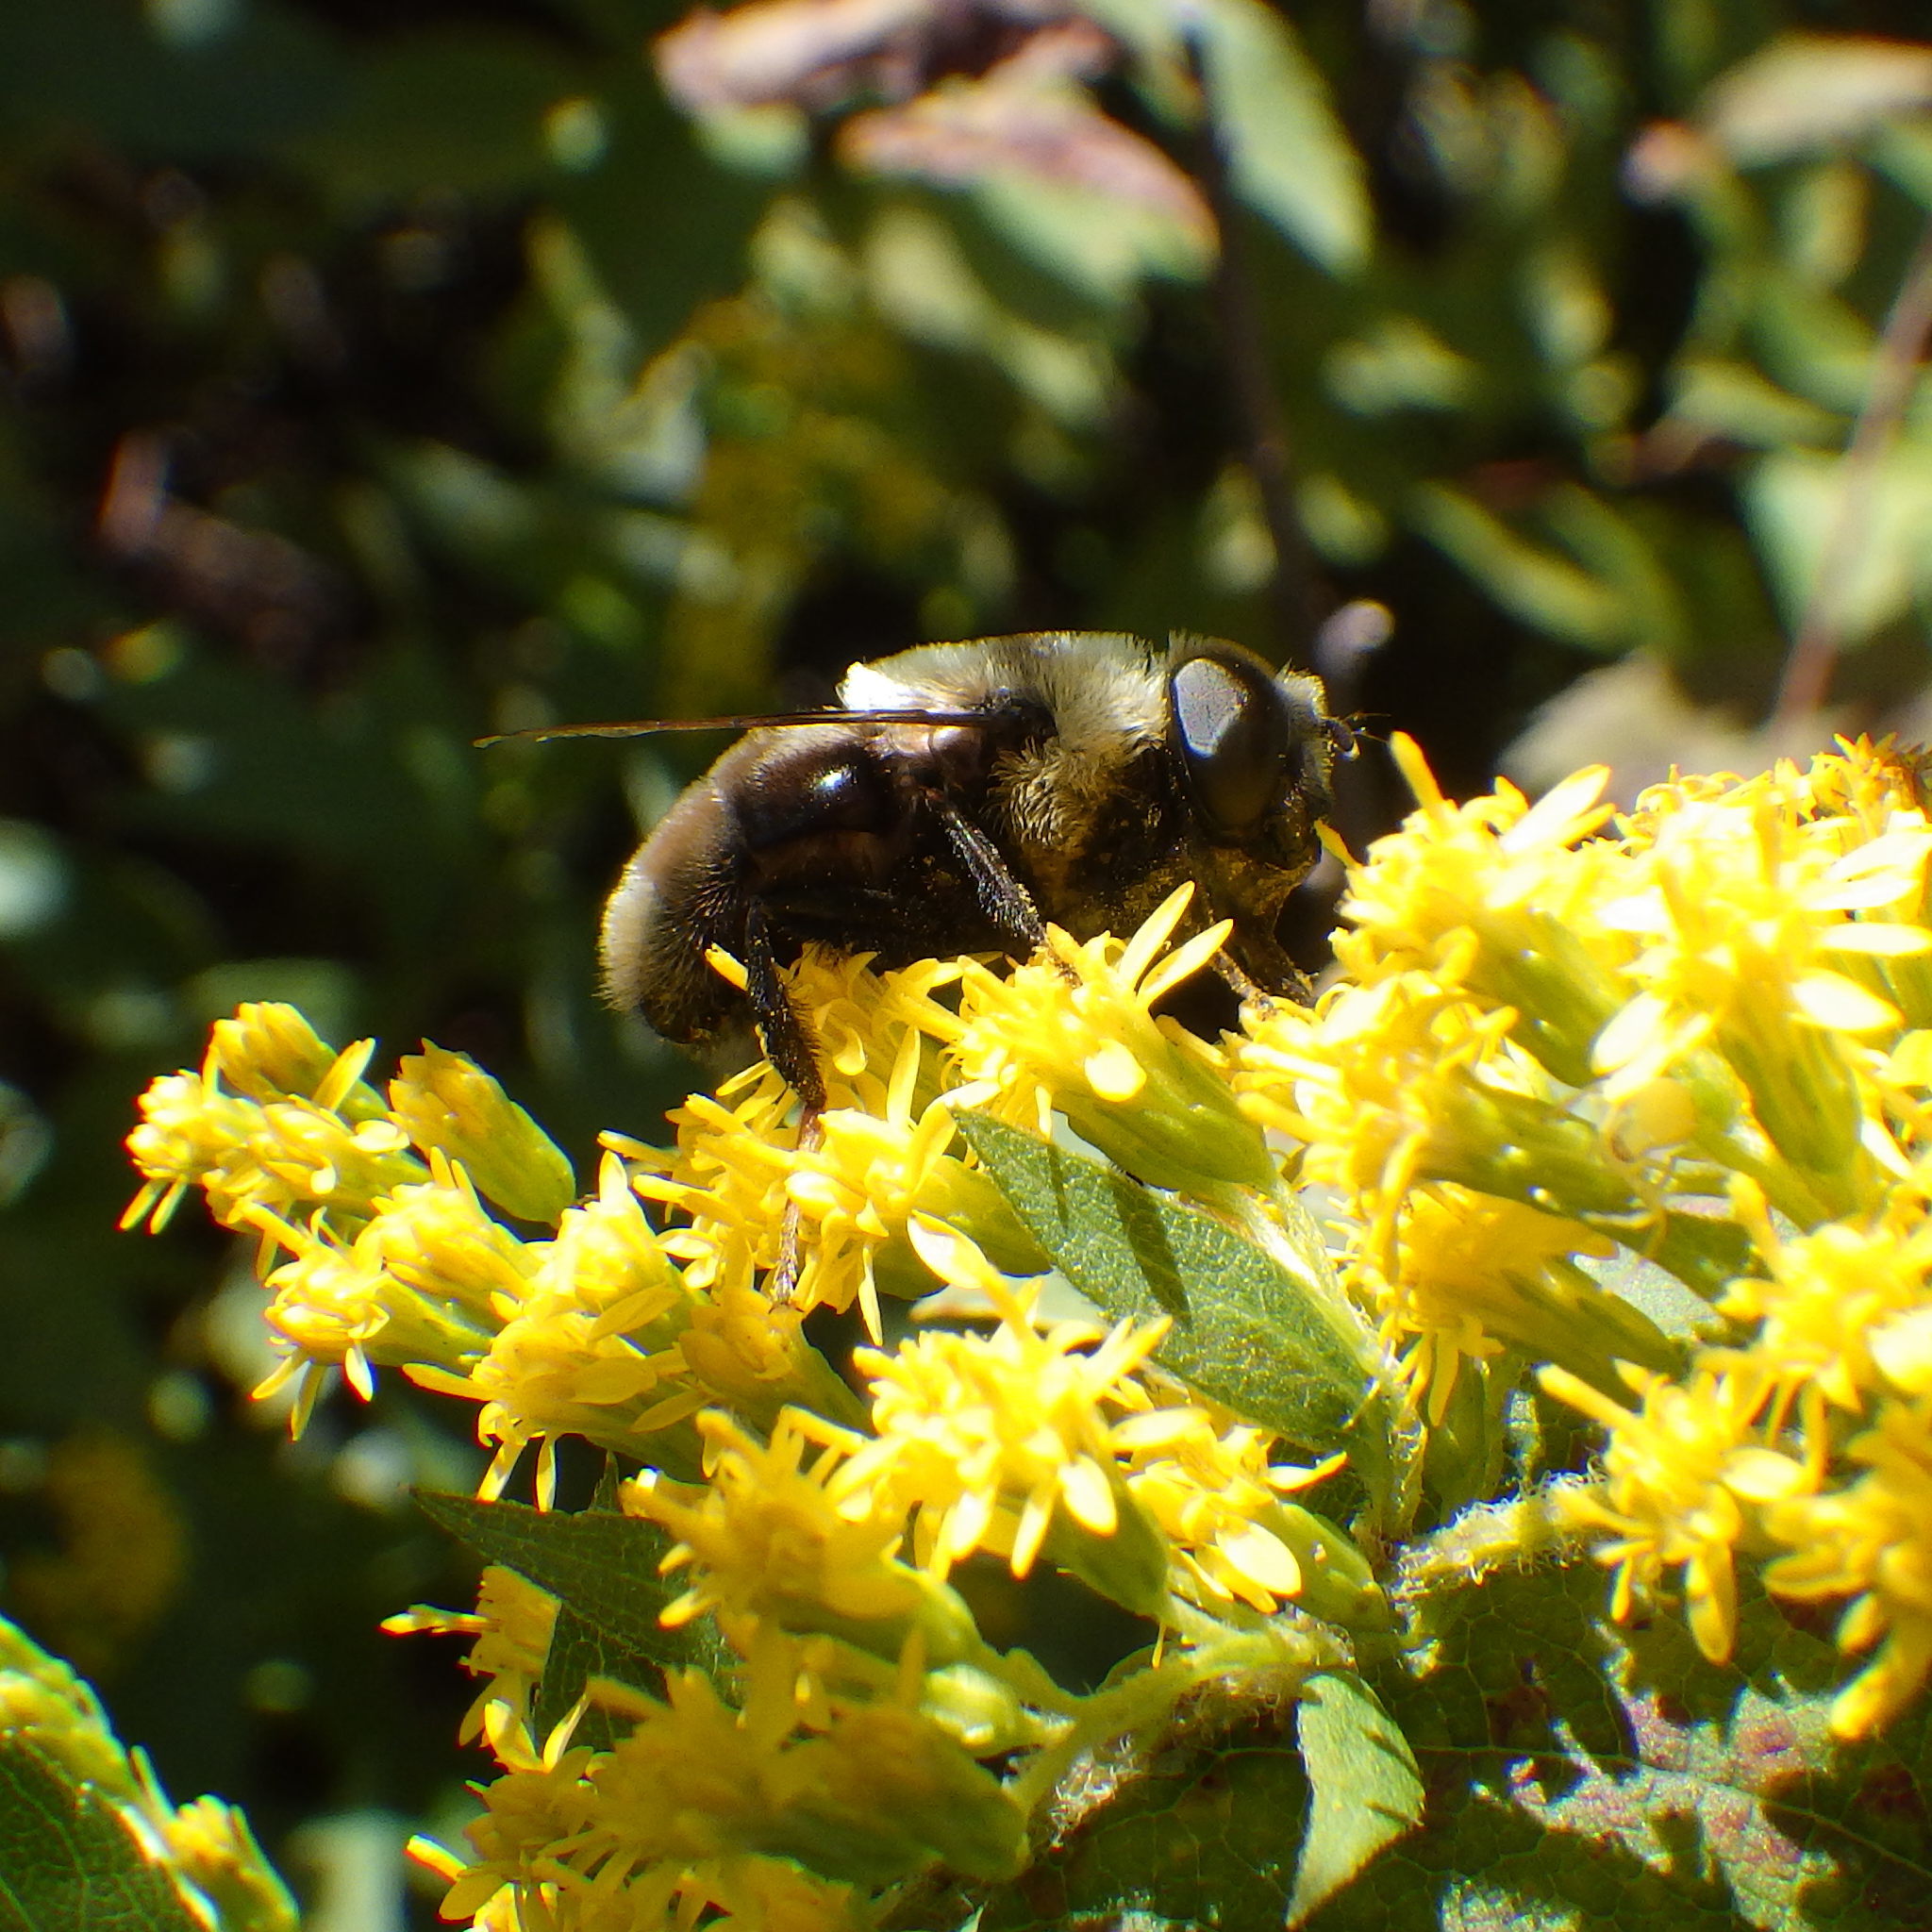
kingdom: Animalia
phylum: Arthropoda
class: Insecta
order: Diptera
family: Syrphidae
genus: Eristalis
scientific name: Eristalis flavipes
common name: Orange-legged drone fly
